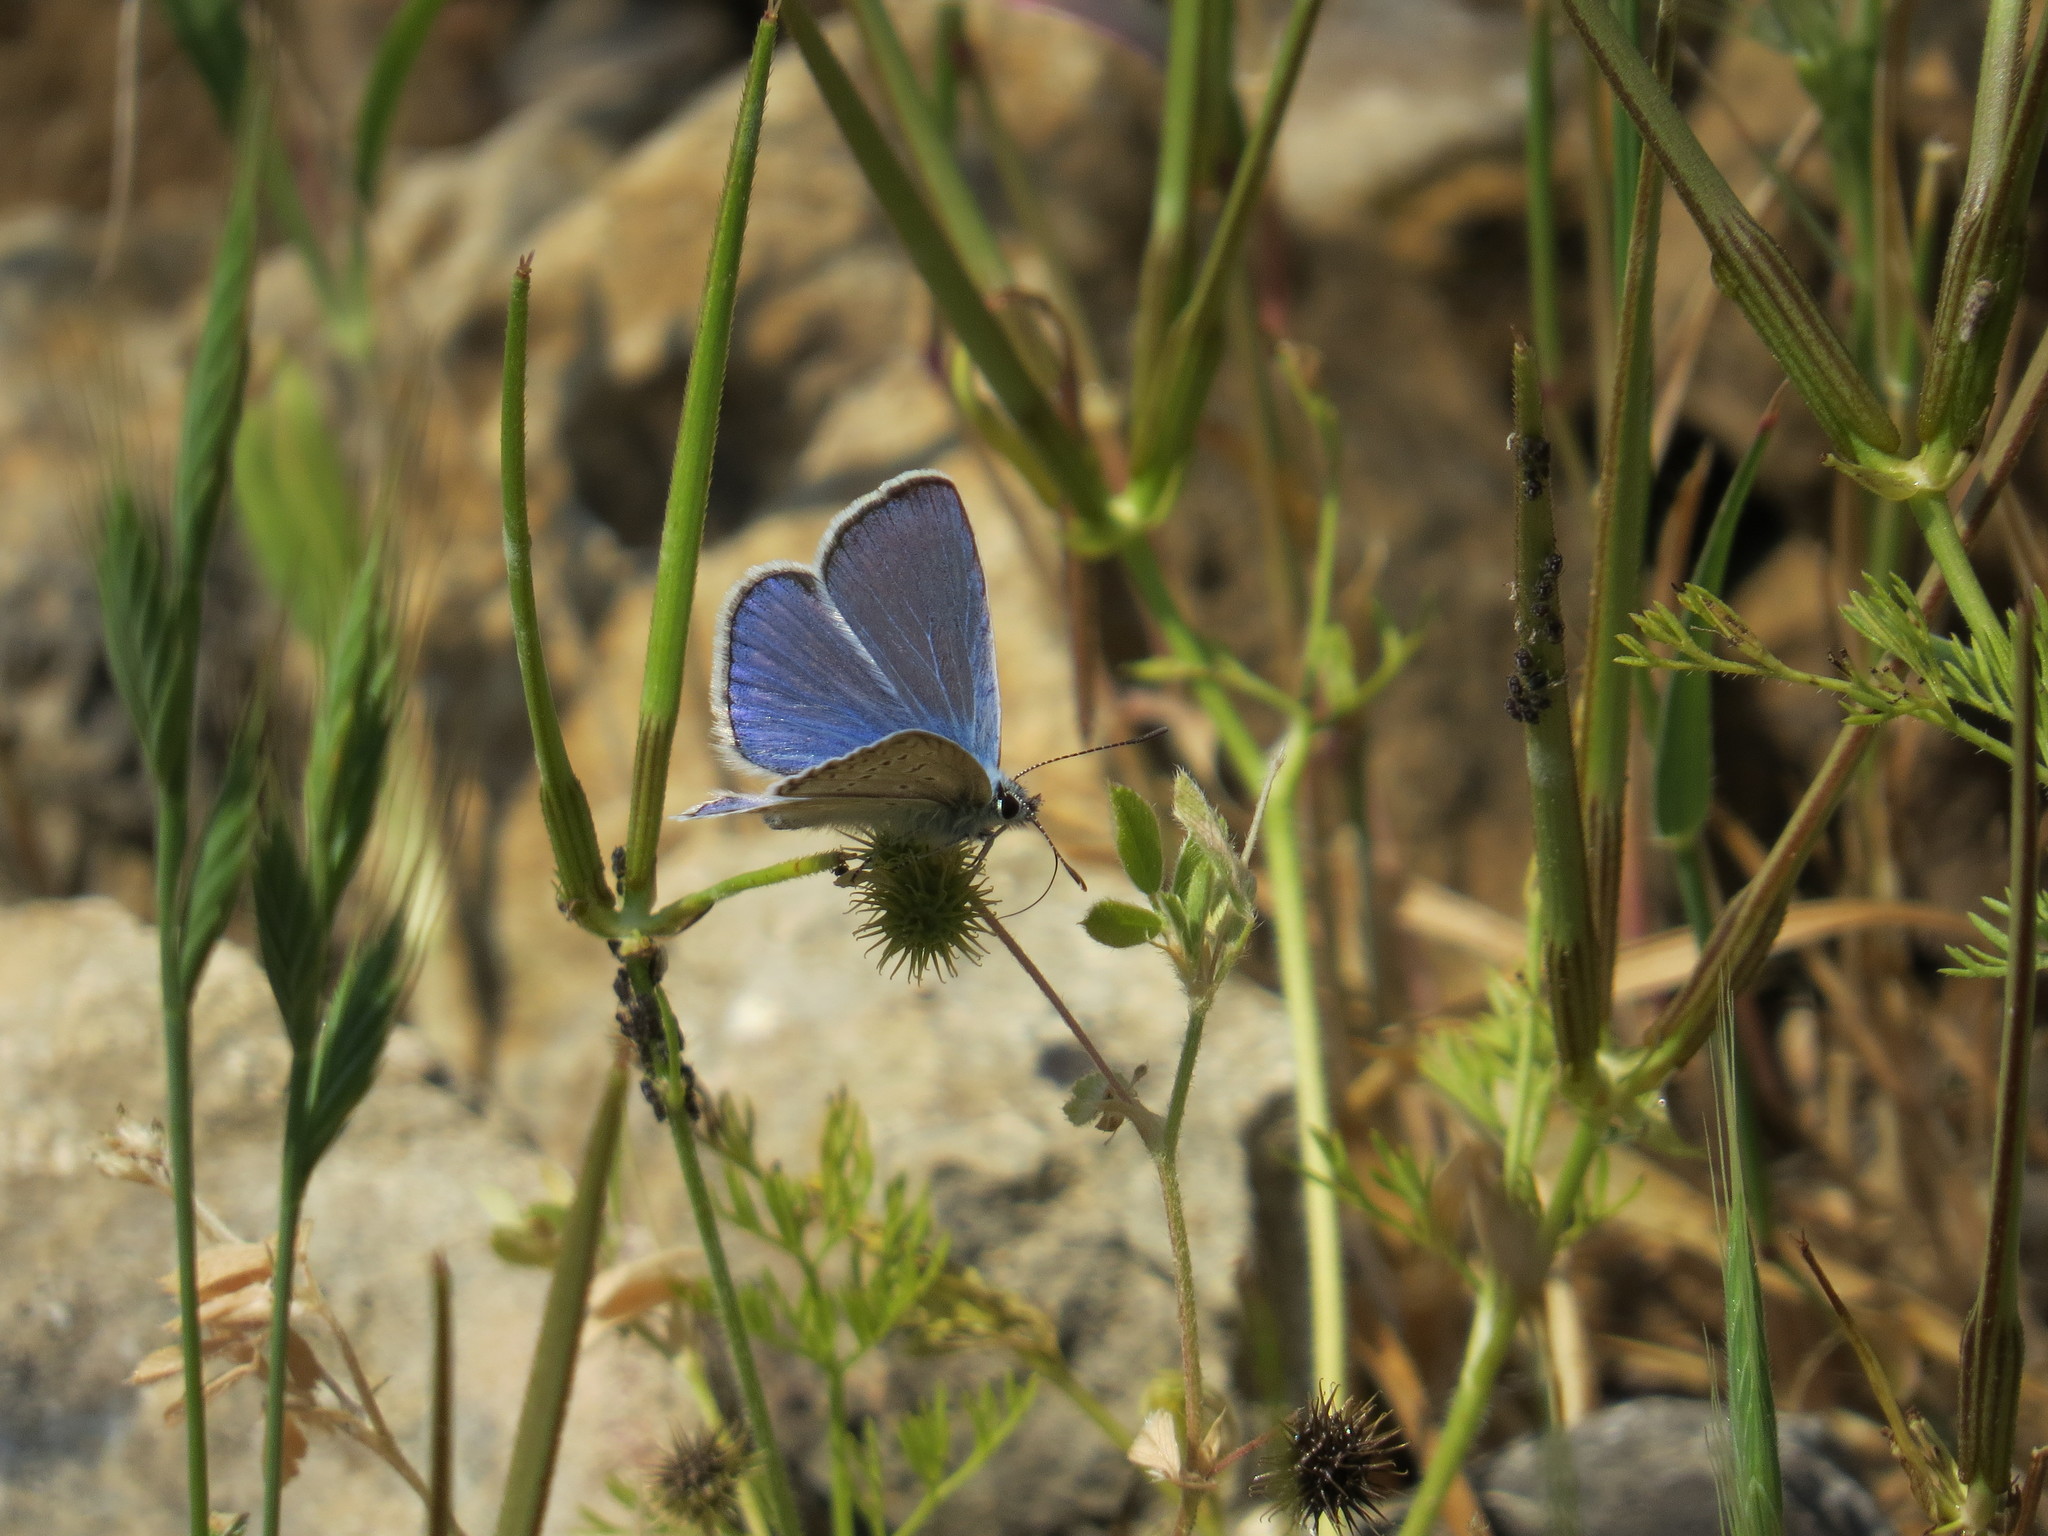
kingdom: Animalia
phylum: Arthropoda
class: Insecta
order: Lepidoptera
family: Lycaenidae
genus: Polyommatus
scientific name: Polyommatus icarus
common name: Common blue
